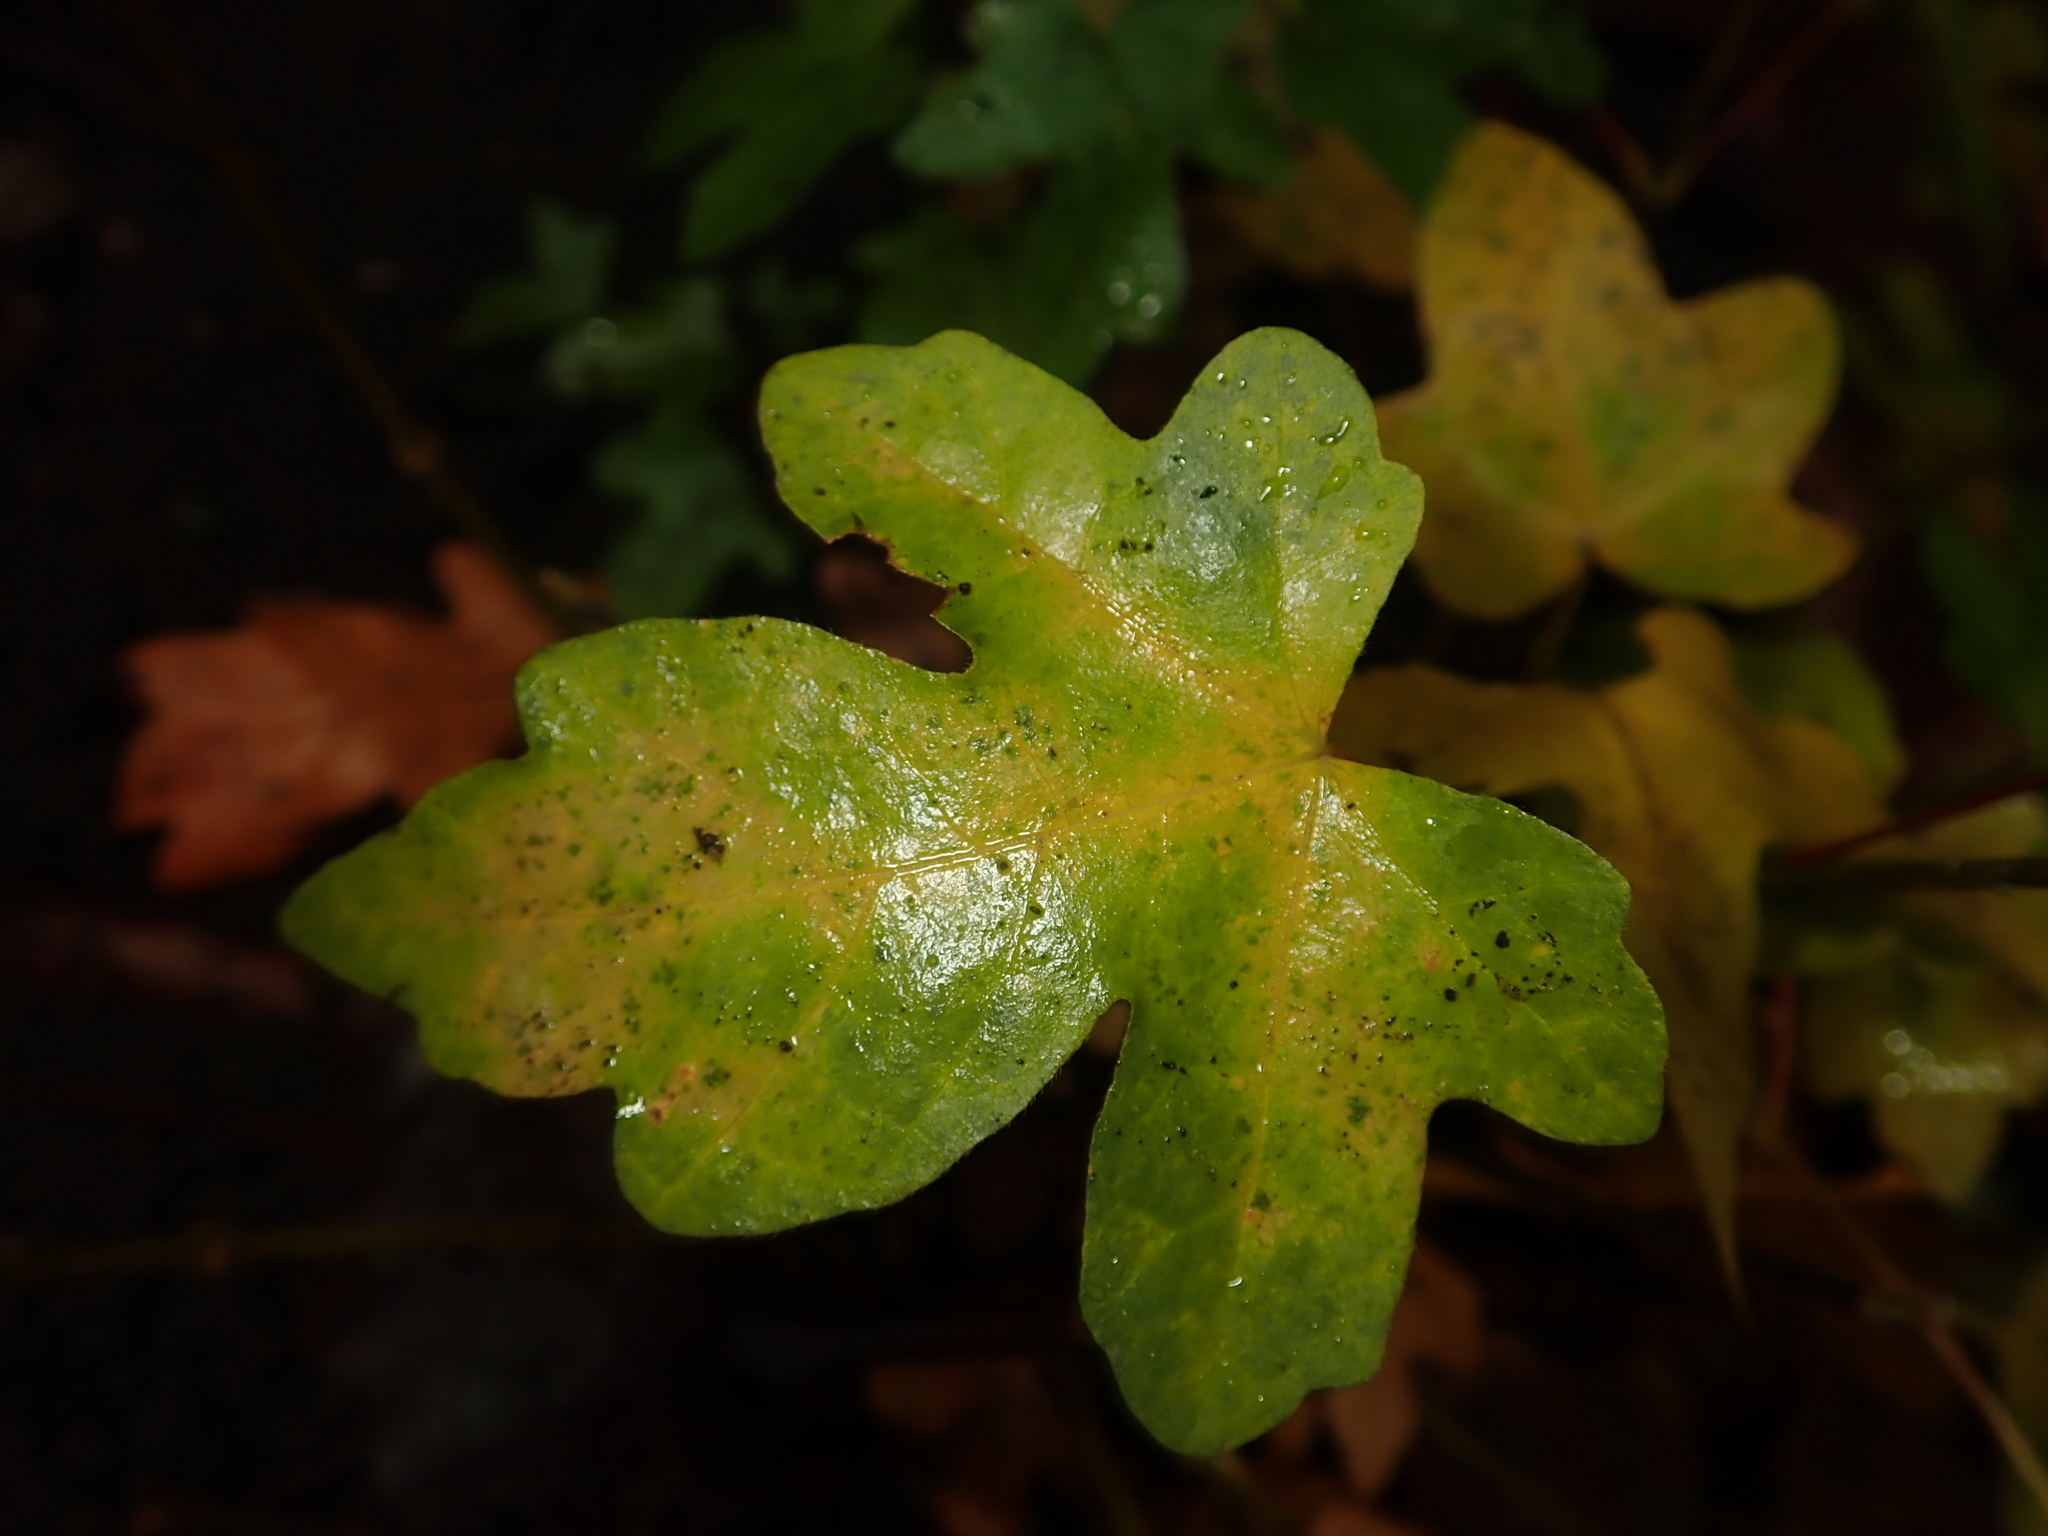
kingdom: Plantae
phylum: Tracheophyta
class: Magnoliopsida
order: Sapindales
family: Sapindaceae
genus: Acer
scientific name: Acer campestre
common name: Field maple
